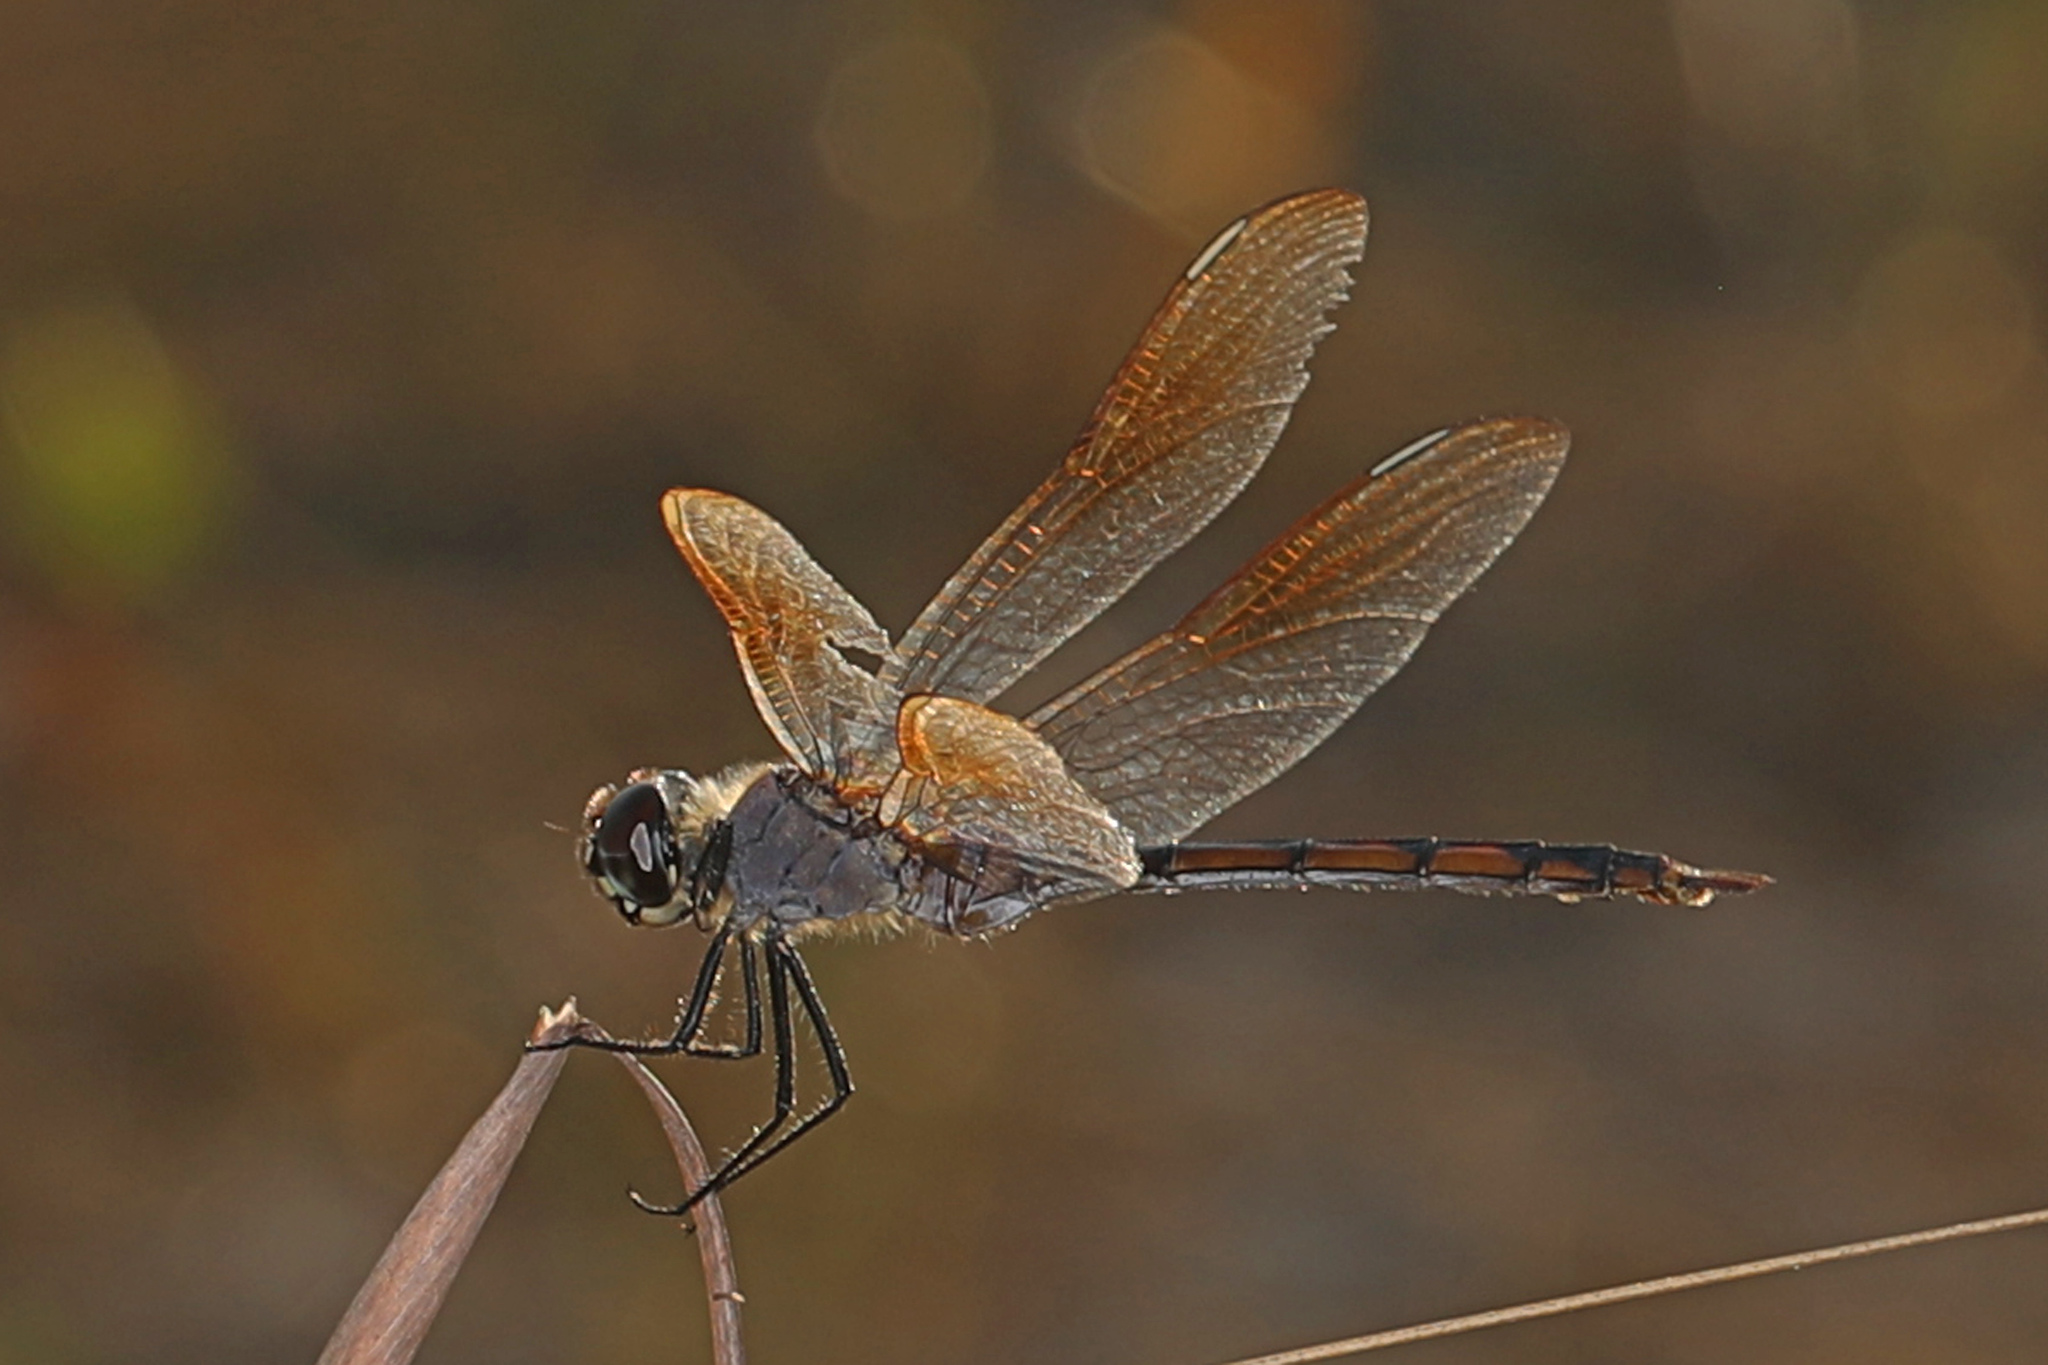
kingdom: Animalia
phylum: Arthropoda
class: Insecta
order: Odonata
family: Libellulidae
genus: Brachymesia
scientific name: Brachymesia gravida
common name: Four-spotted pennant
